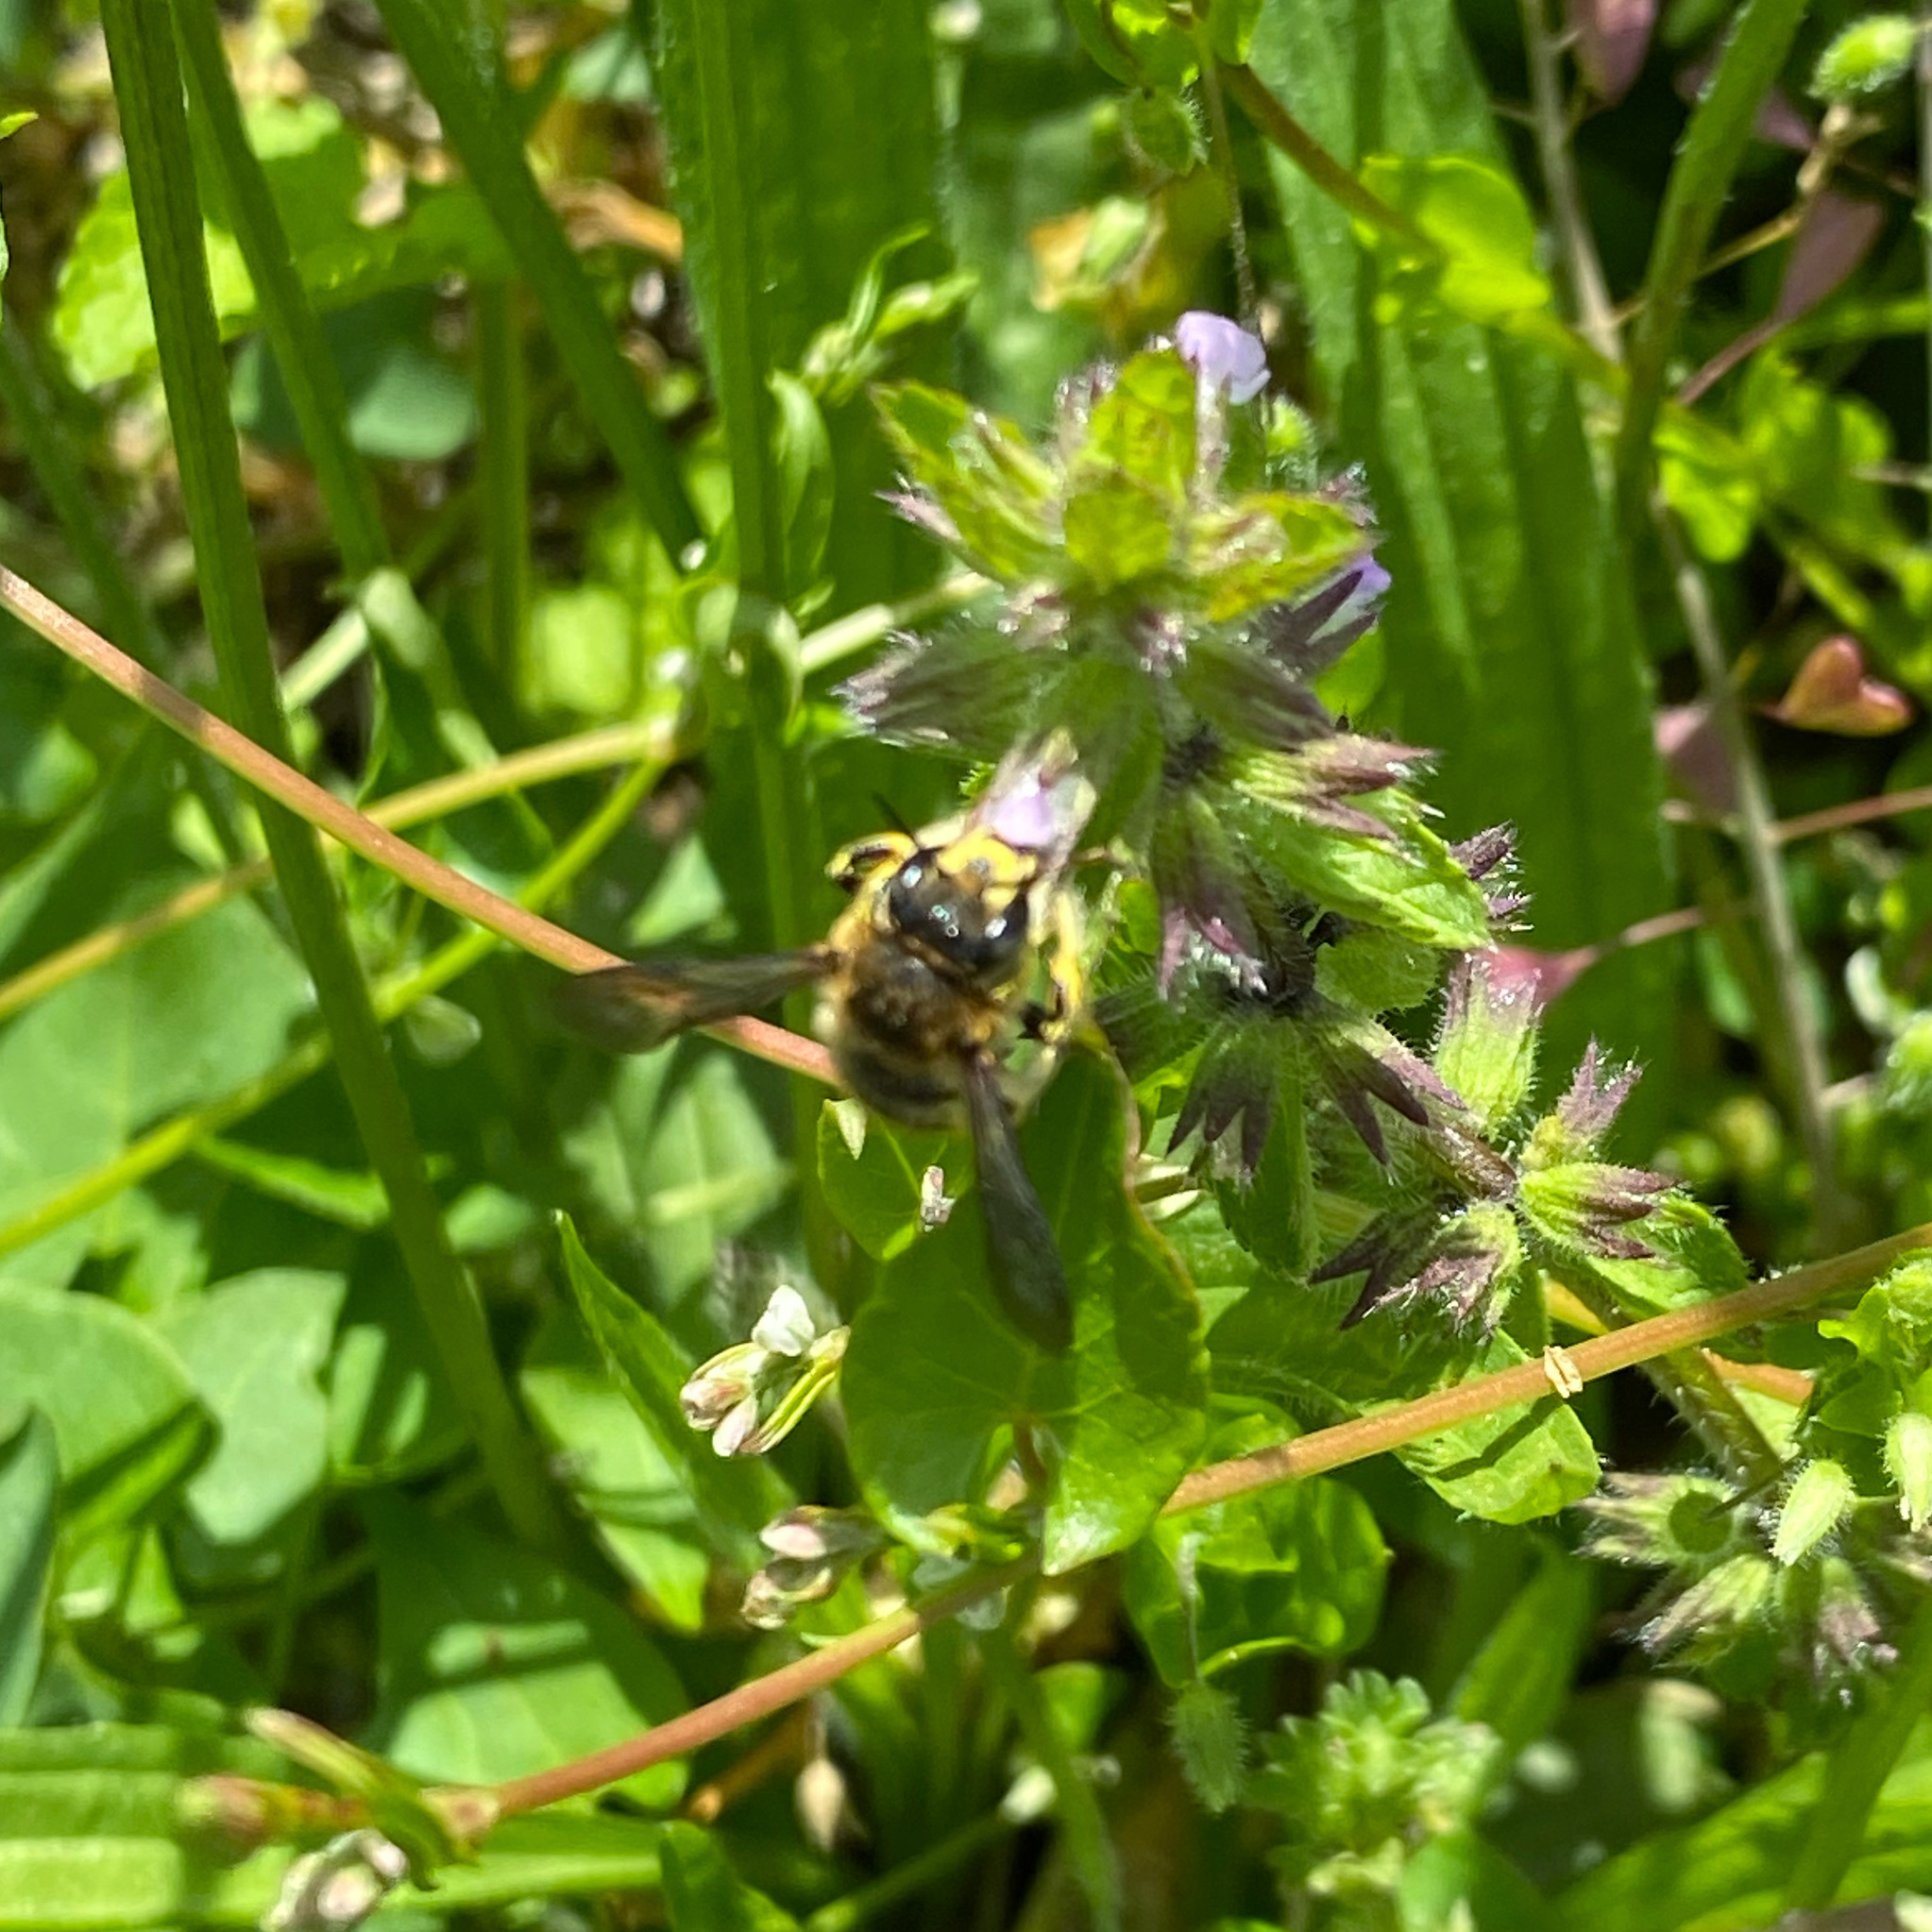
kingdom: Animalia
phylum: Arthropoda
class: Insecta
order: Hymenoptera
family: Megachilidae
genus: Anthidium
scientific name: Anthidium manicatum
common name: Wool carder bee
